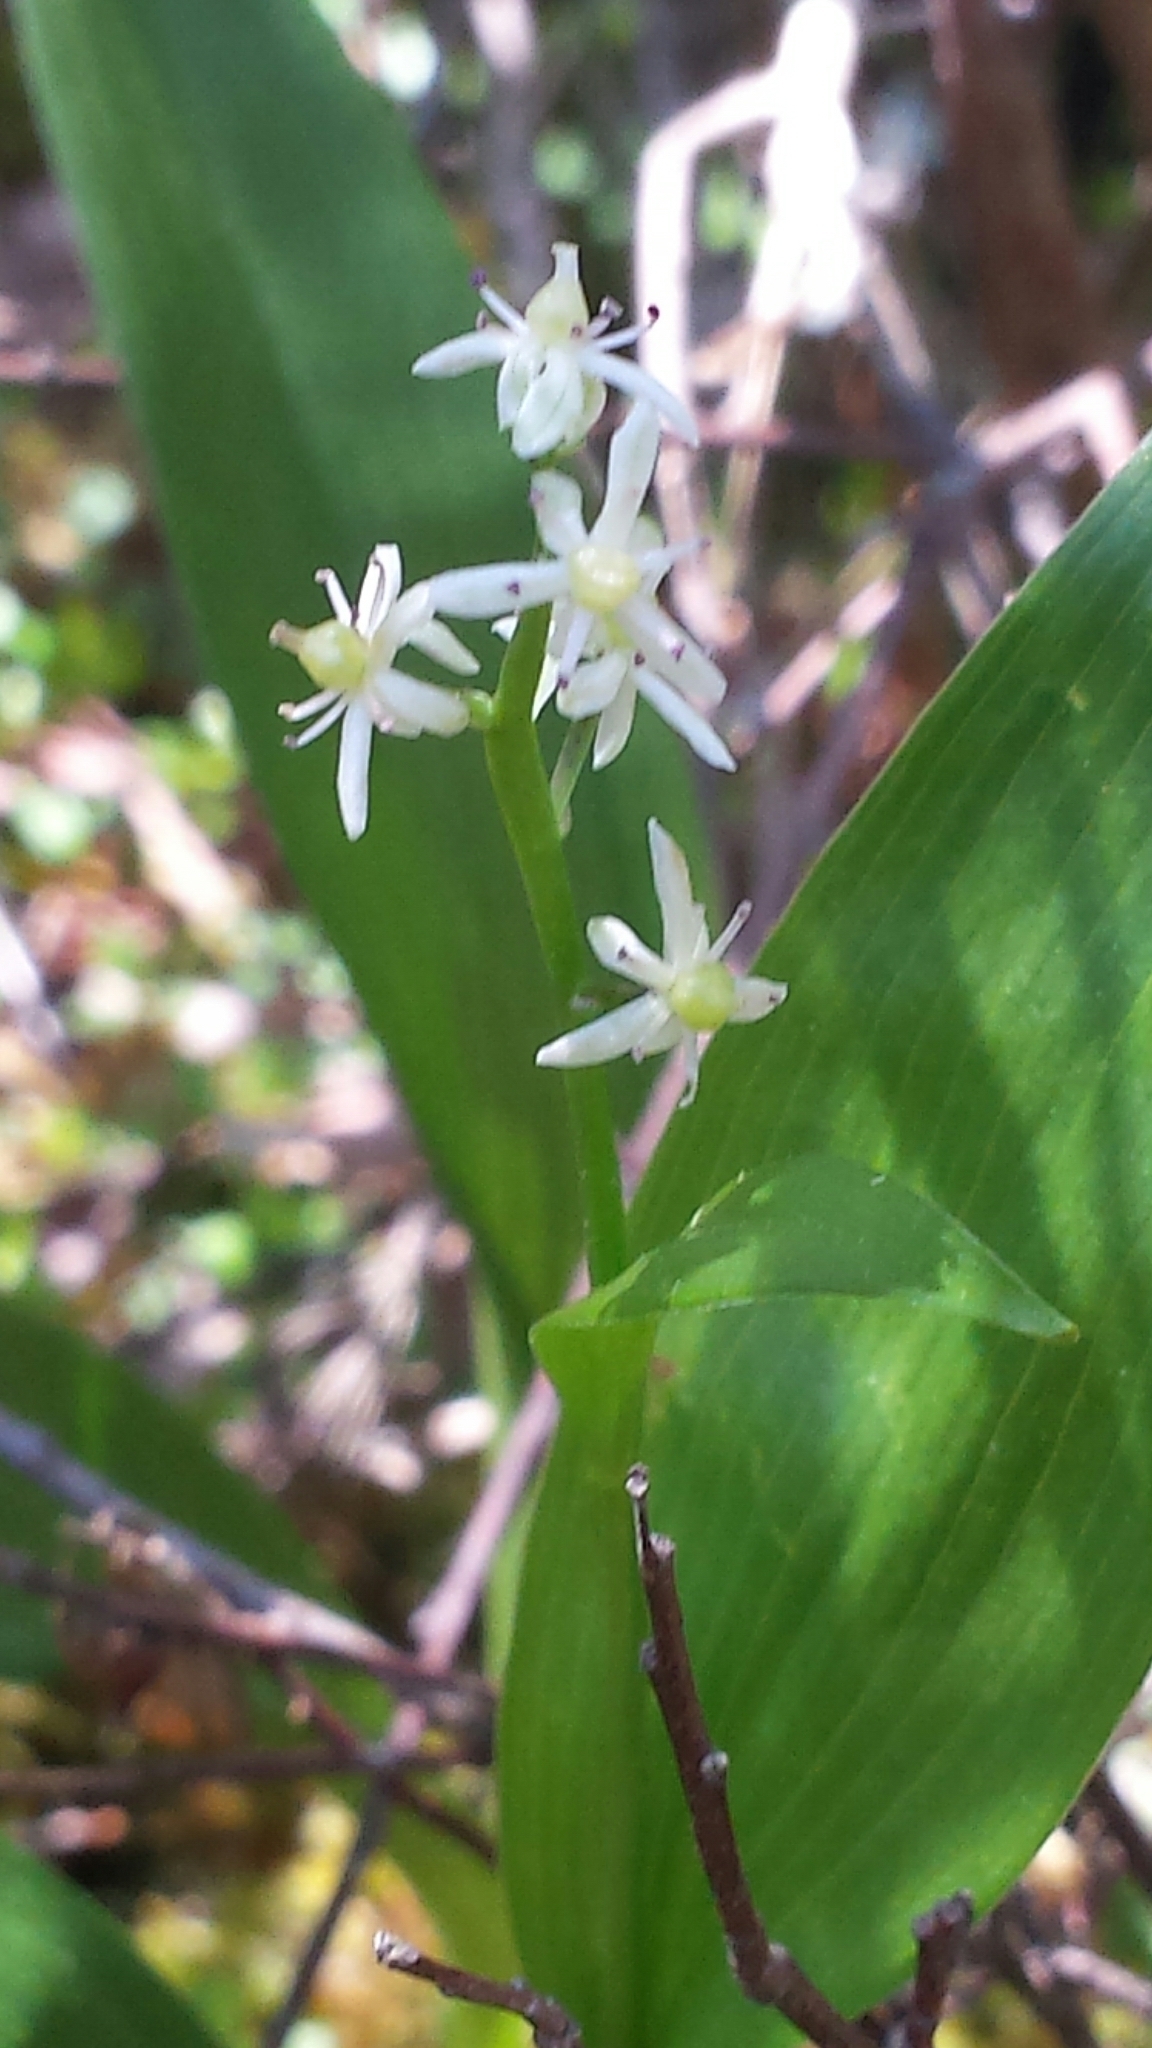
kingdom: Plantae
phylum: Tracheophyta
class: Liliopsida
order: Asparagales
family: Asparagaceae
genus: Maianthemum
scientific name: Maianthemum trifolium
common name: Swamp false solomon's seal
